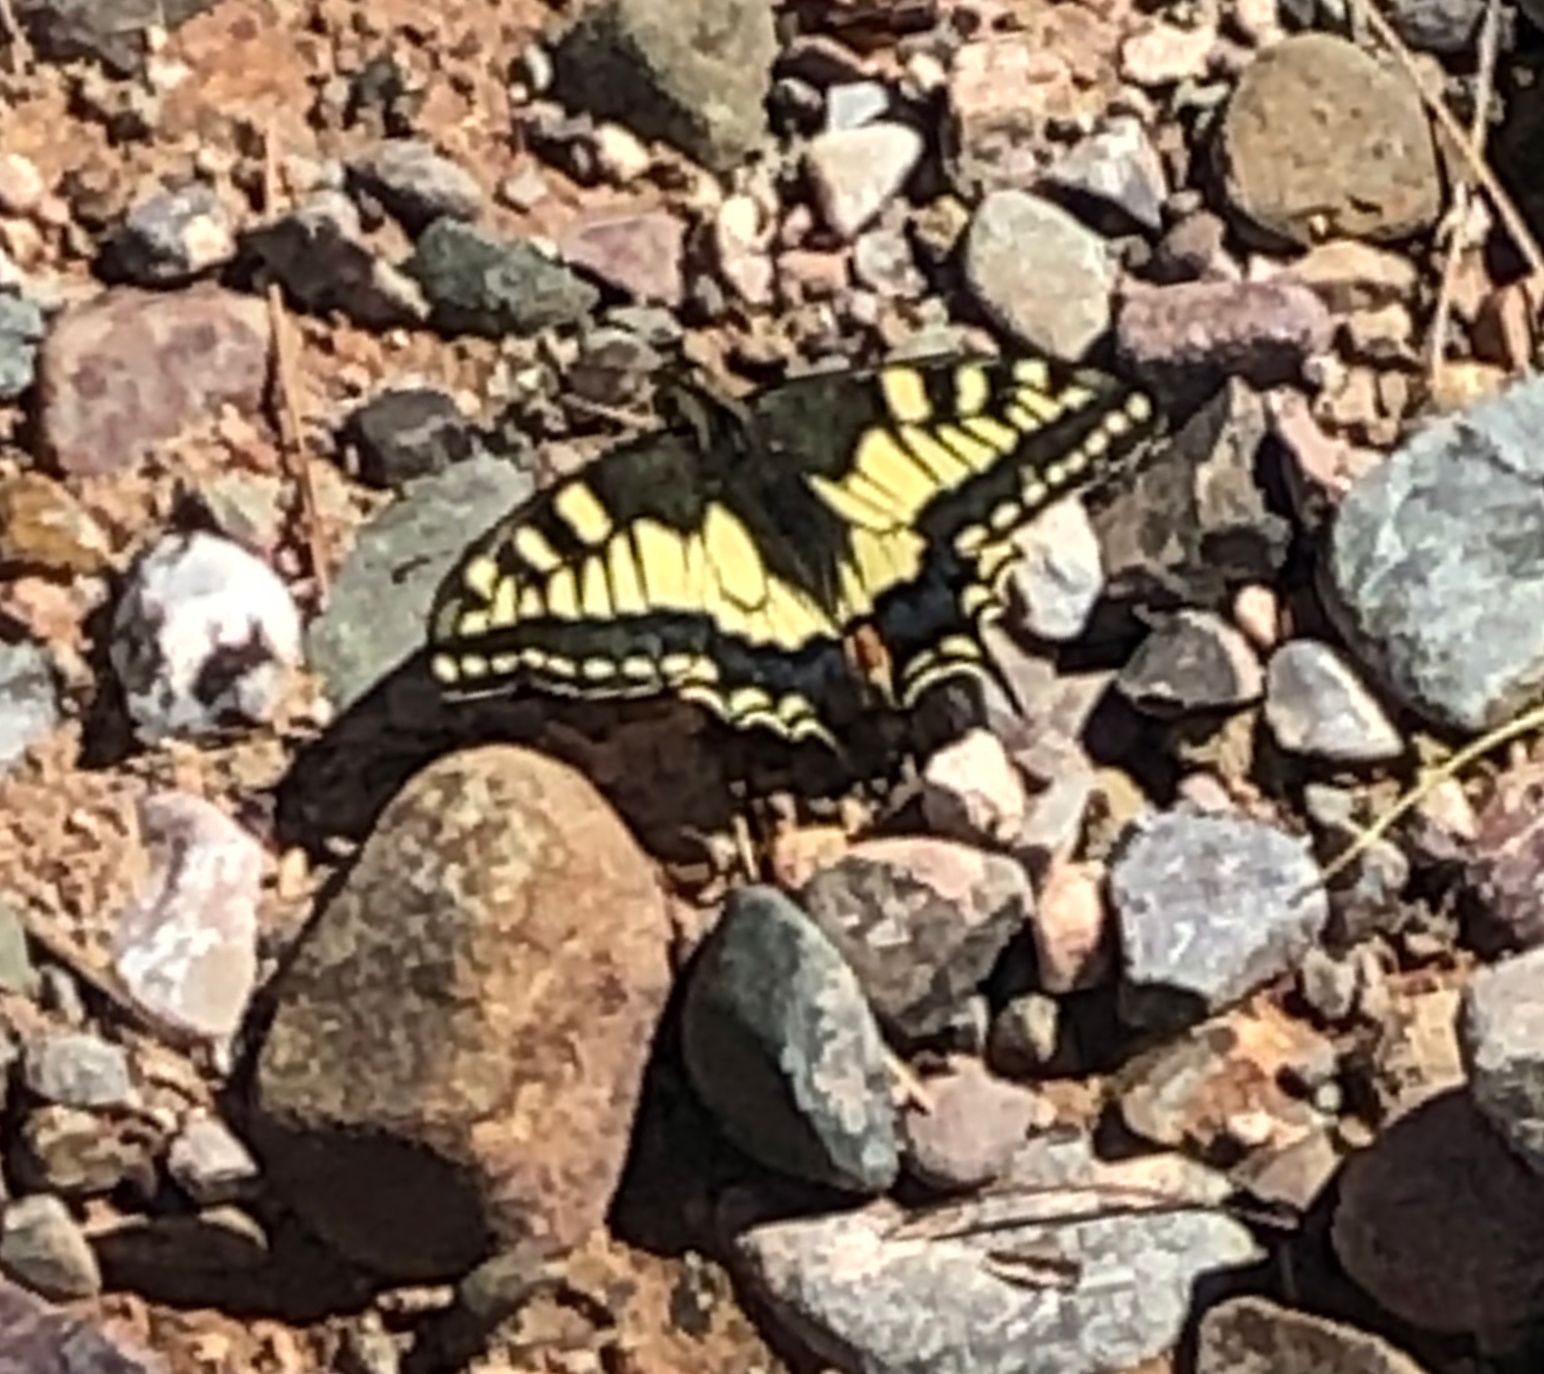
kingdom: Animalia
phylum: Arthropoda
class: Insecta
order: Lepidoptera
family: Papilionidae
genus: Papilio
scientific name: Papilio machaon
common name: Swallowtail
